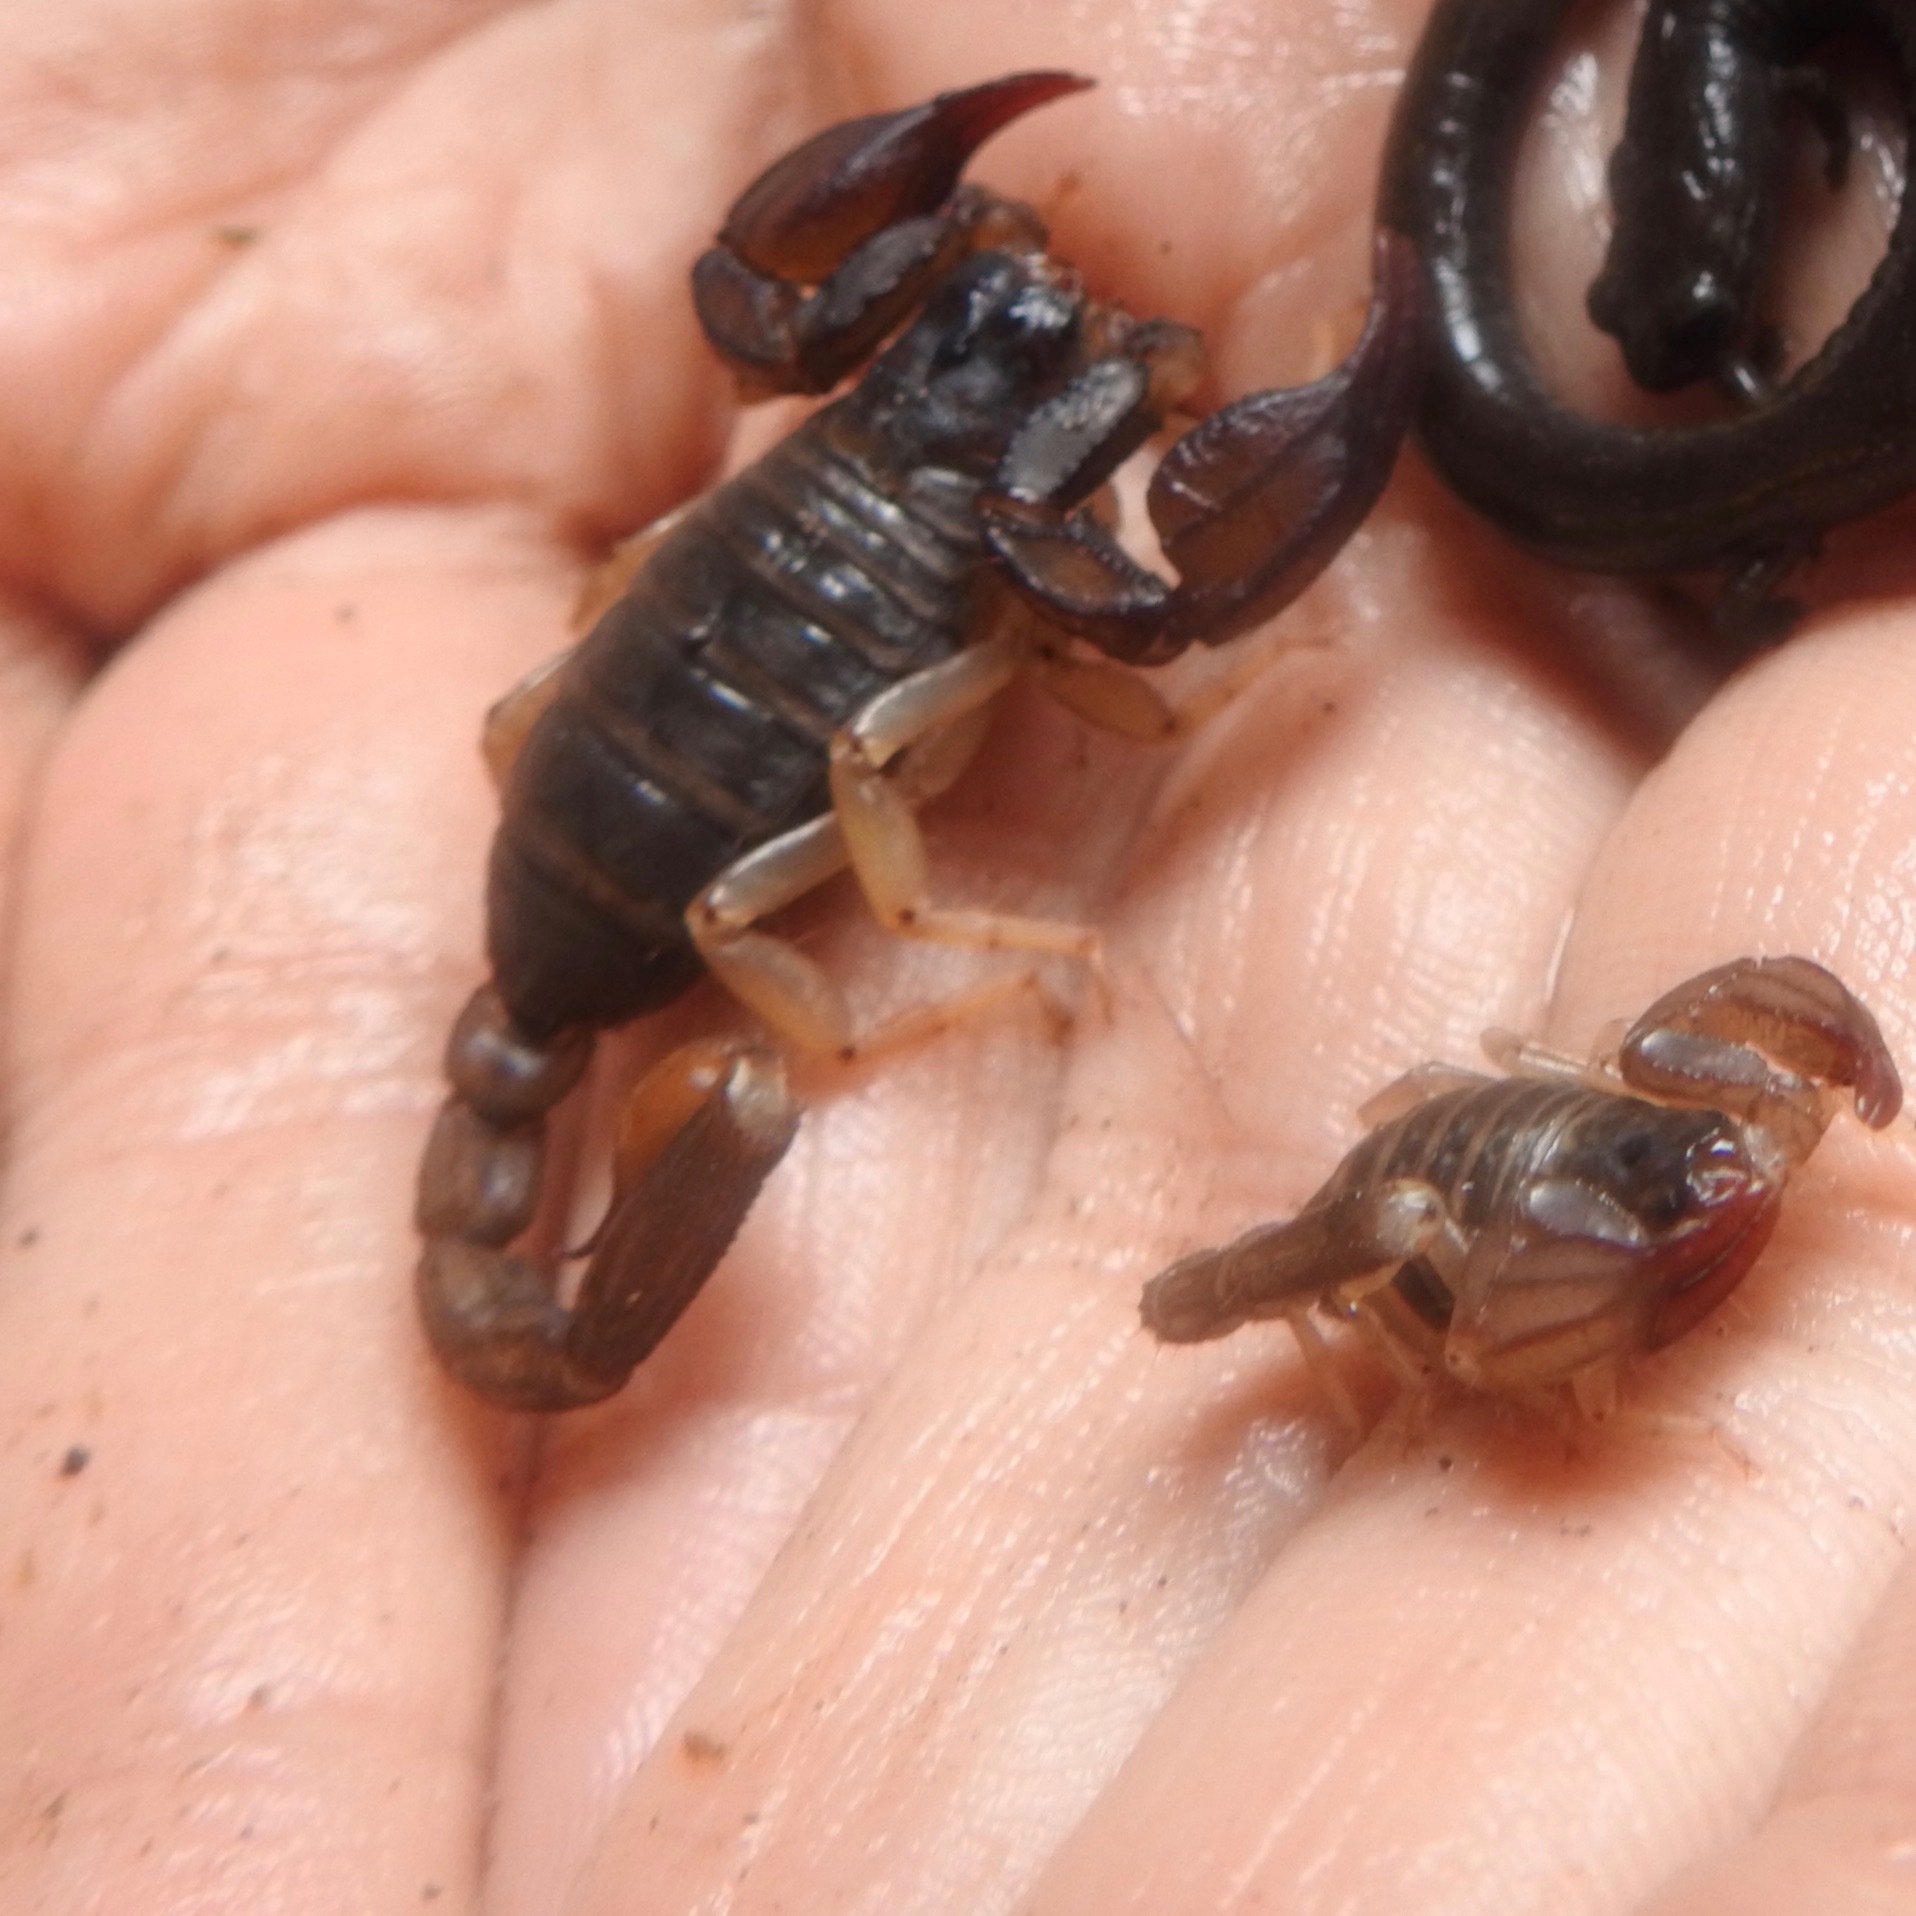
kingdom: Animalia
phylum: Arthropoda
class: Arachnida
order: Scorpiones
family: Chactidae
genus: Uroctonus
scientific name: Uroctonus mordax
